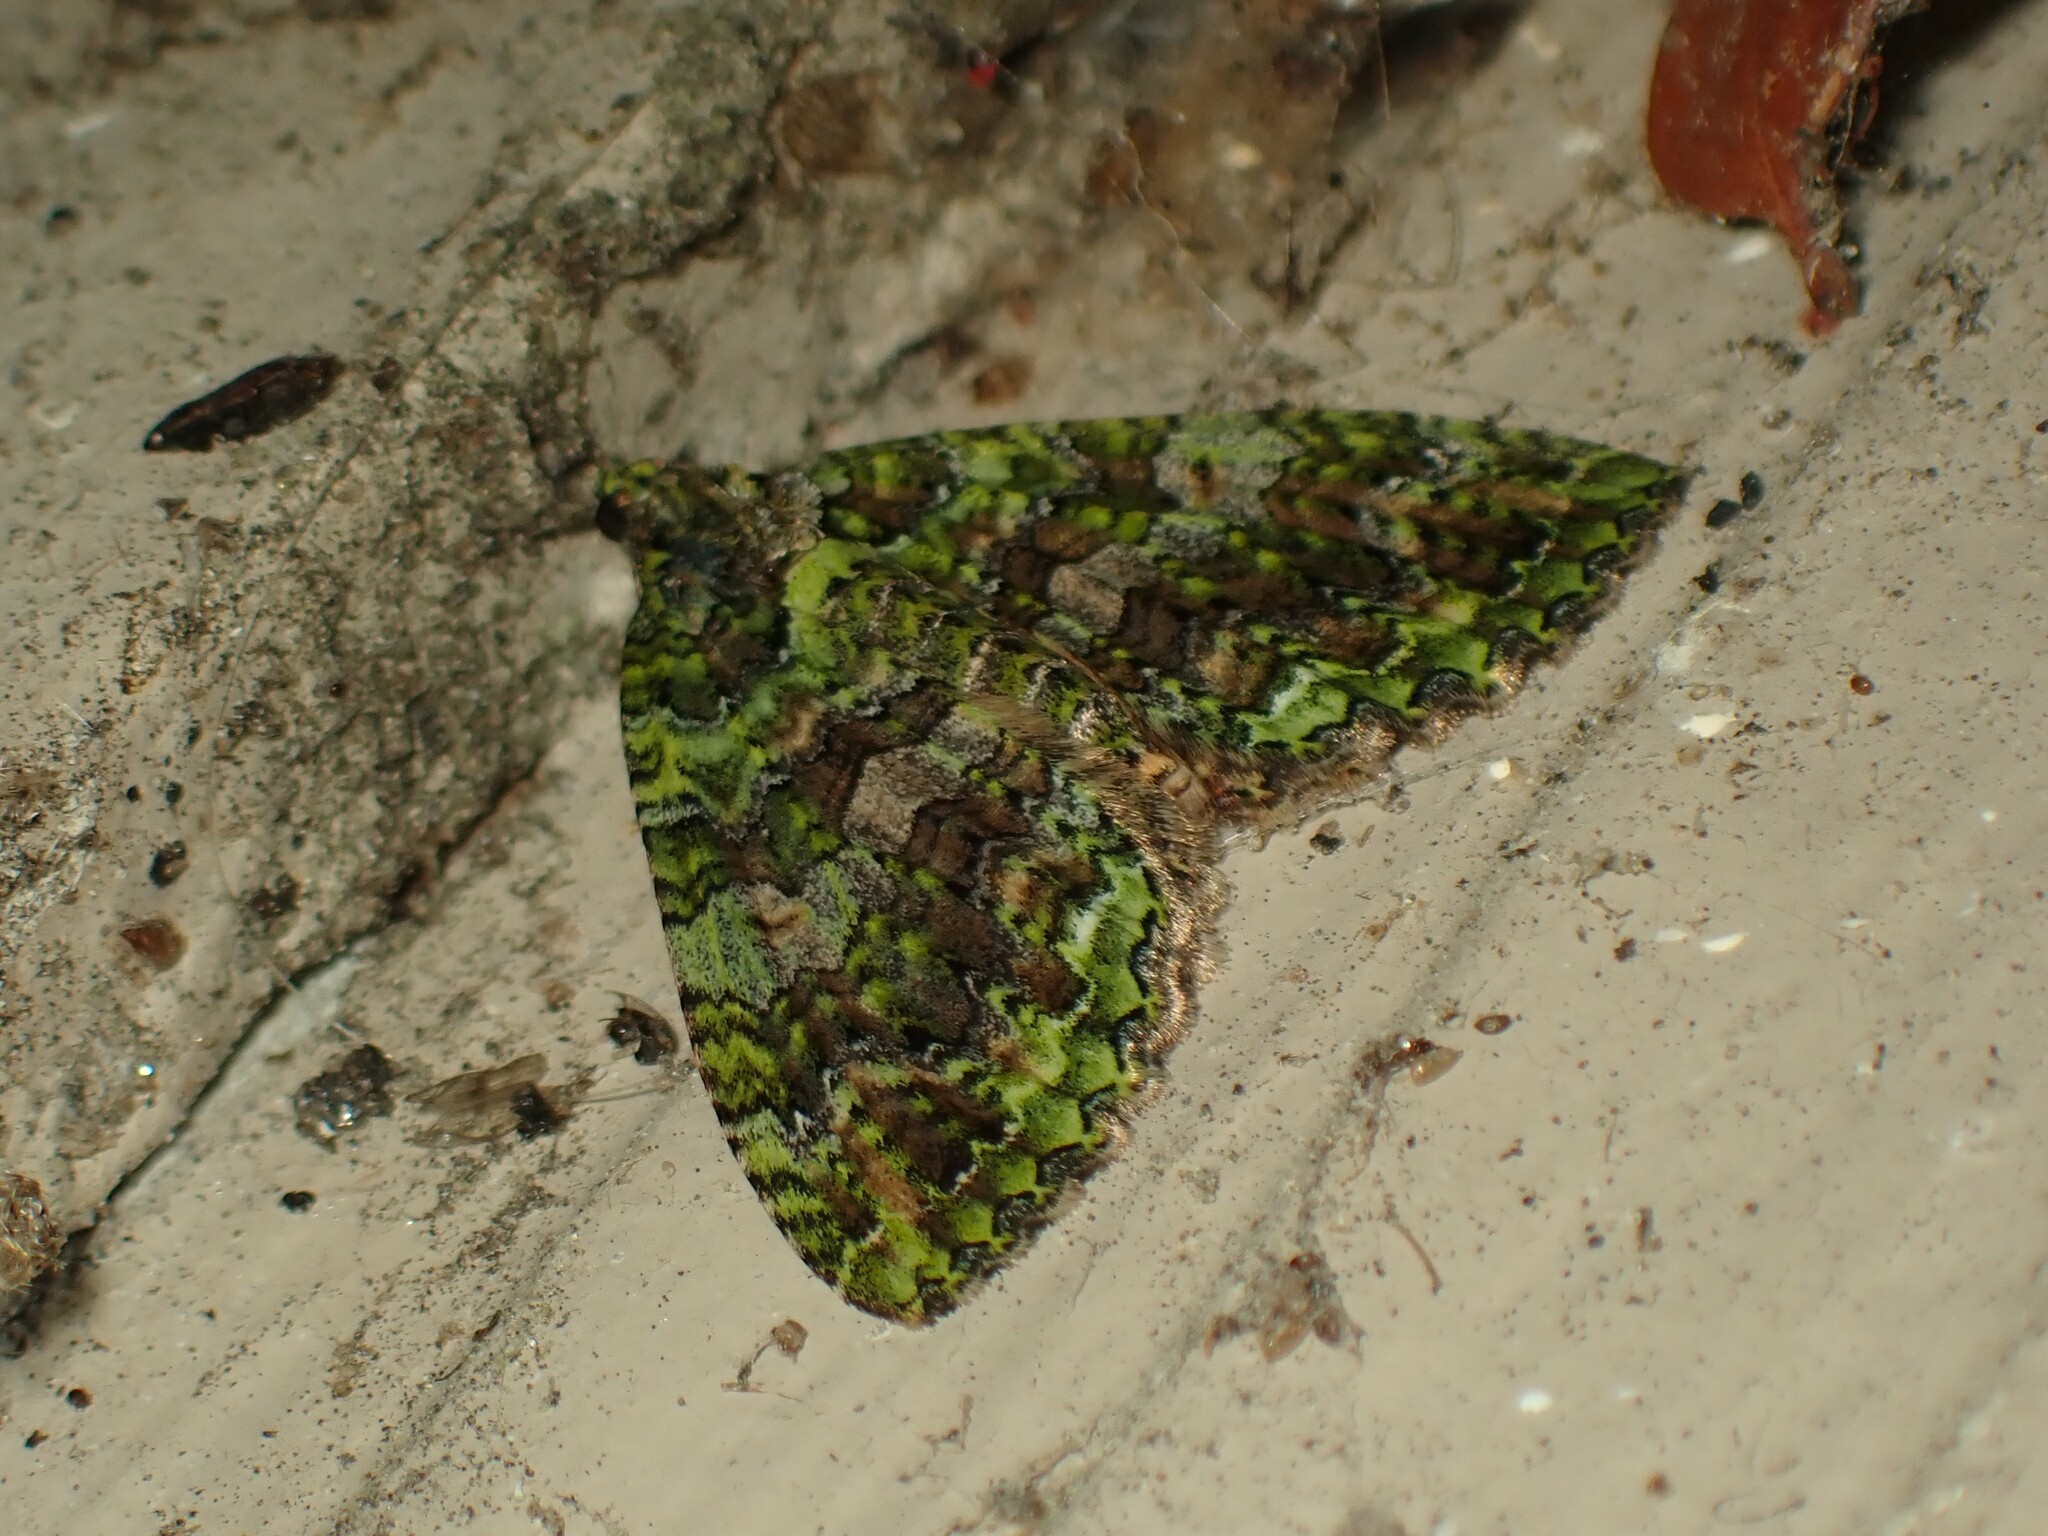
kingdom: Animalia
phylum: Arthropoda
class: Insecta
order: Lepidoptera
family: Geometridae
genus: Austrocidaria
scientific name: Austrocidaria similata
